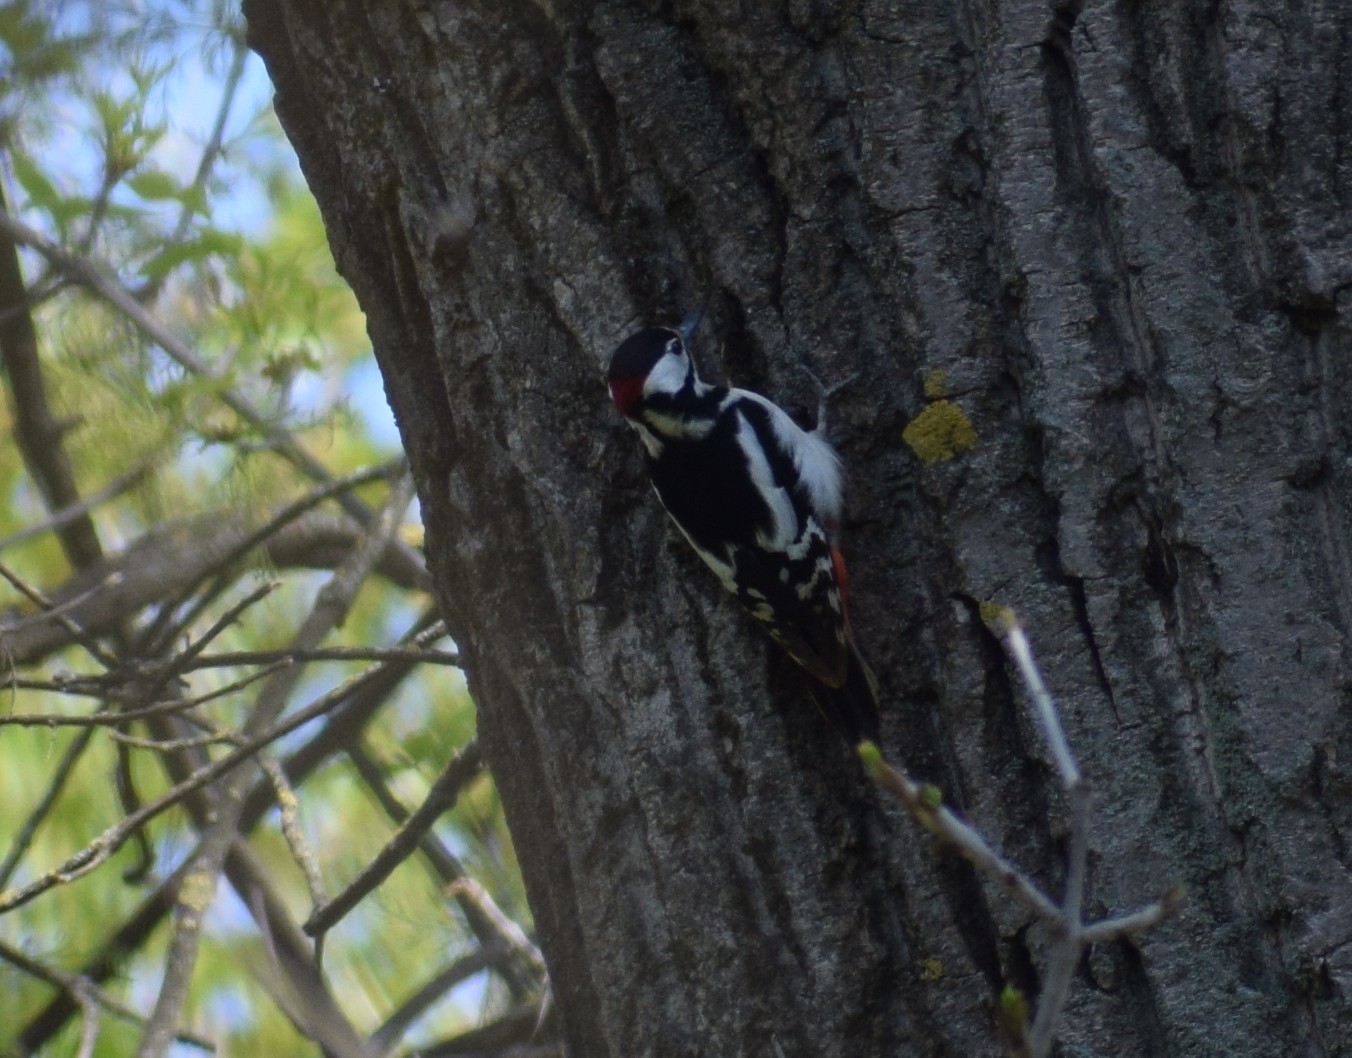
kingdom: Animalia
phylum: Chordata
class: Aves
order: Piciformes
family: Picidae
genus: Dendrocopos
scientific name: Dendrocopos major
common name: Great spotted woodpecker
